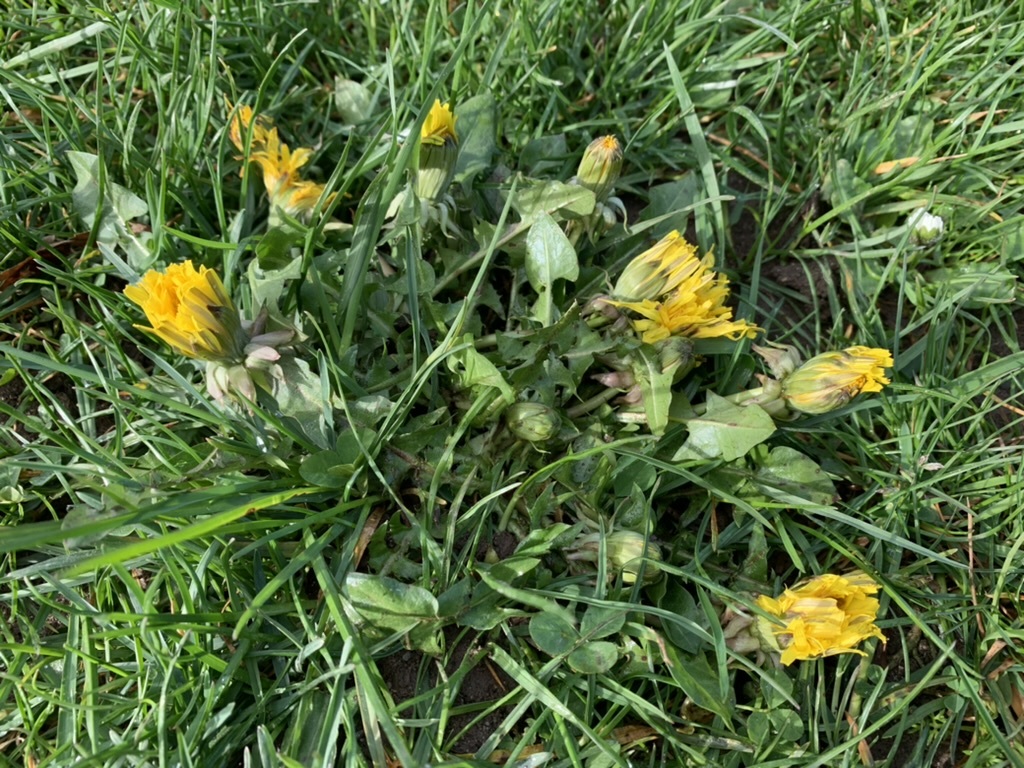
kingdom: Plantae
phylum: Tracheophyta
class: Magnoliopsida
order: Asterales
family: Asteraceae
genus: Taraxacum
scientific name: Taraxacum officinale
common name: Common dandelion
